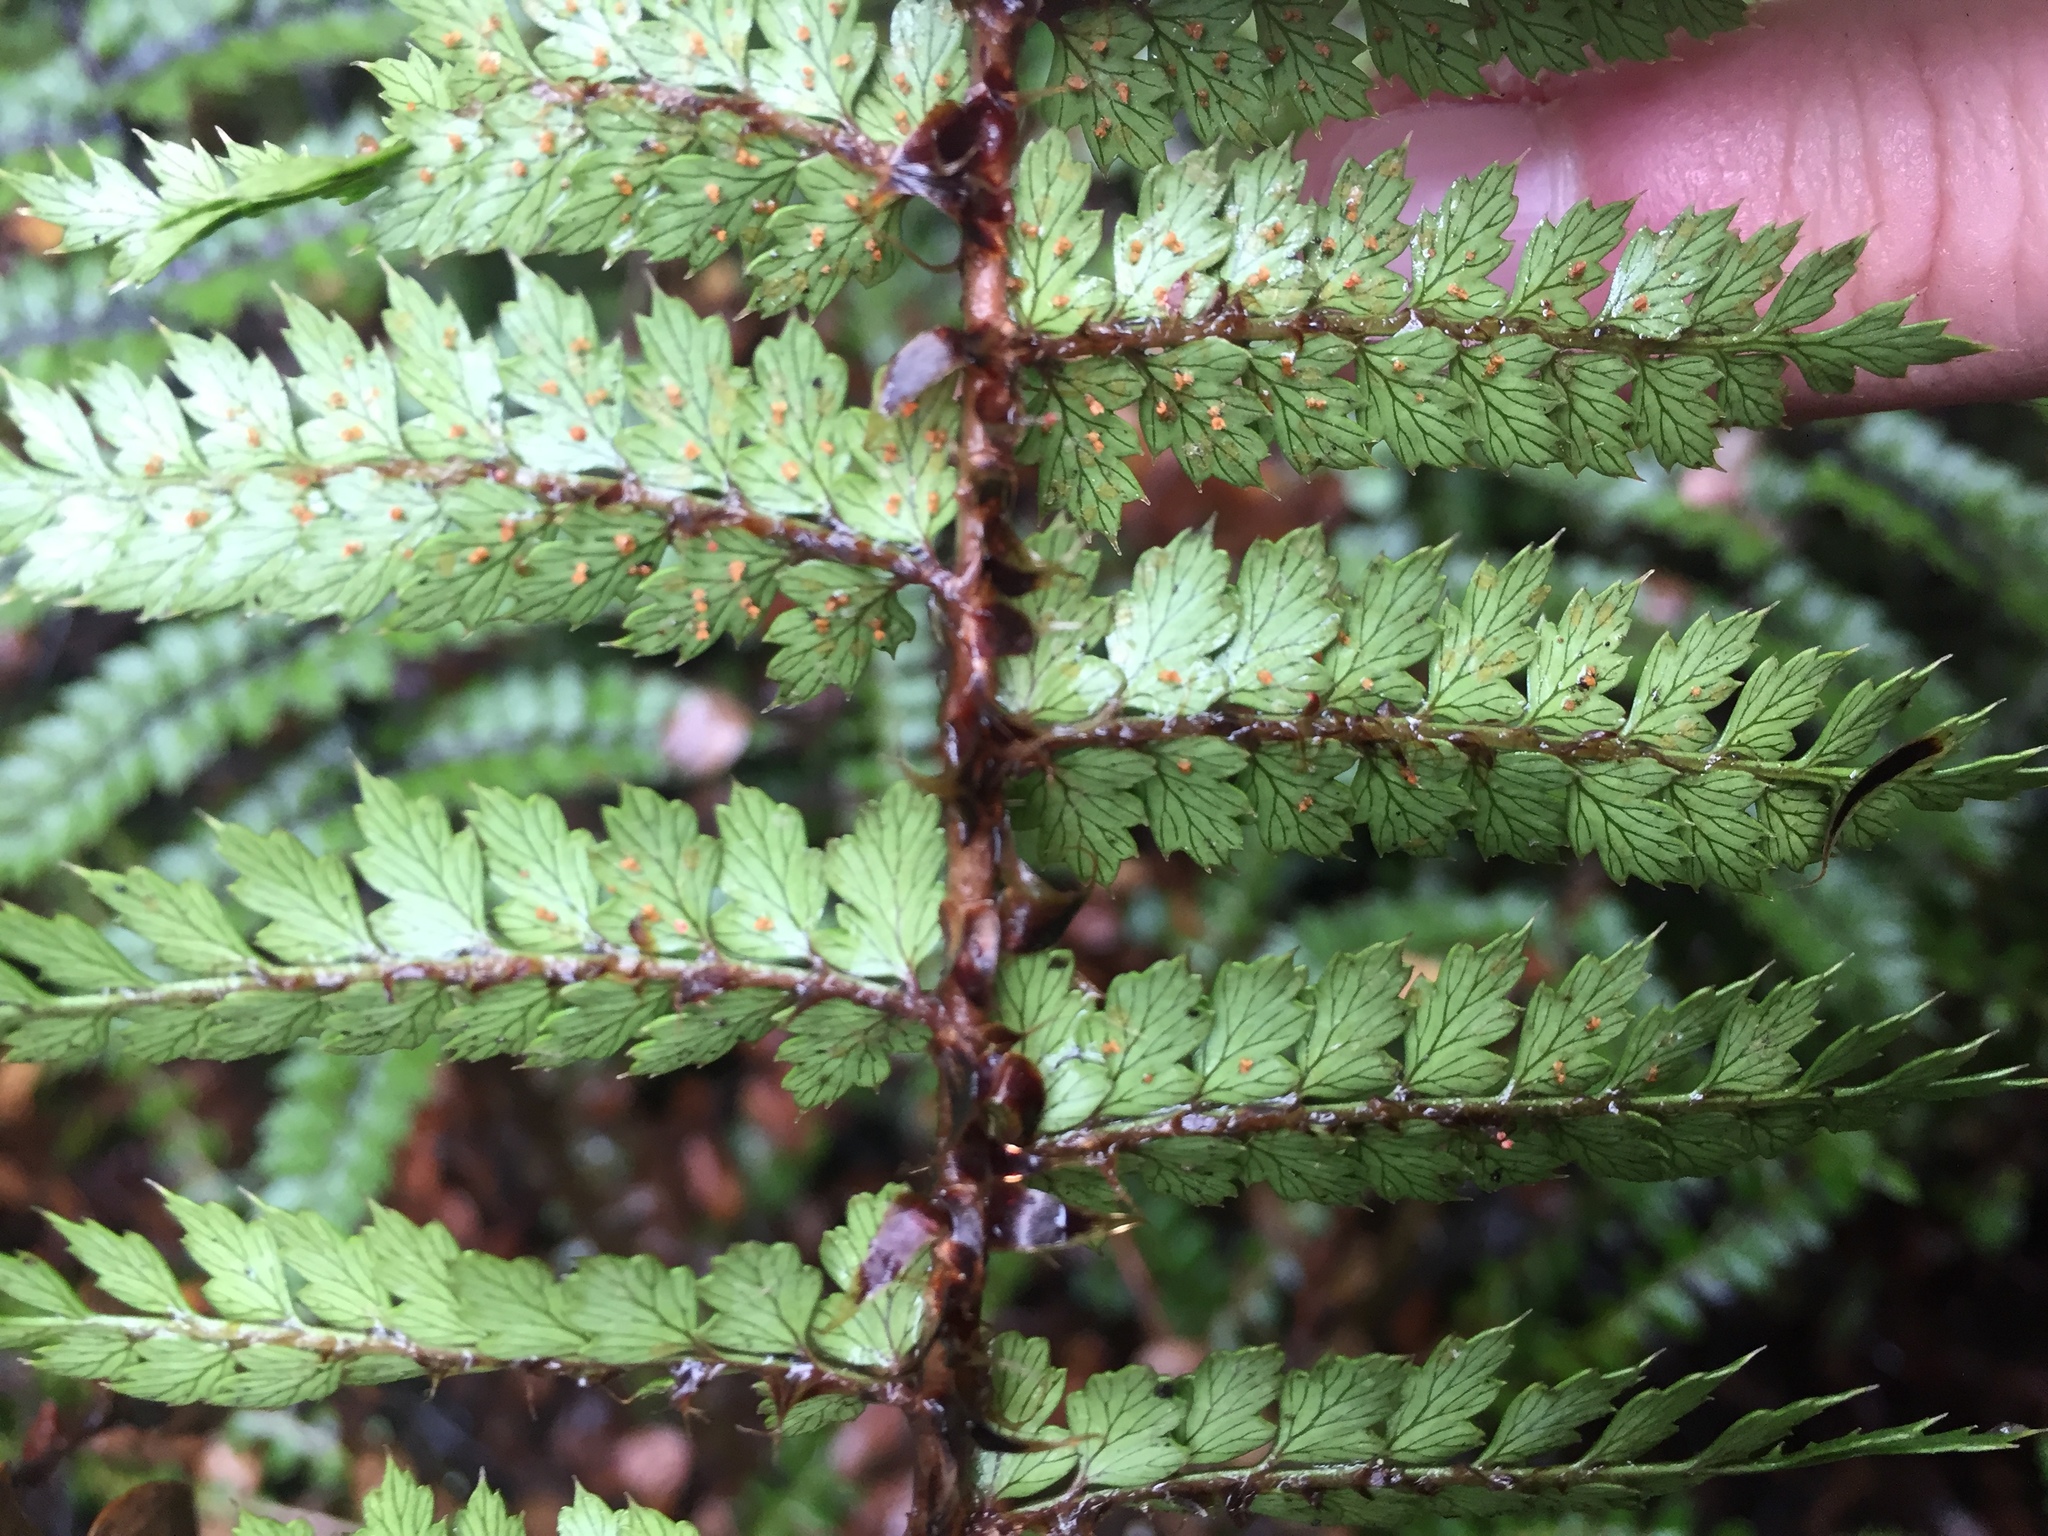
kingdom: Plantae
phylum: Tracheophyta
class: Polypodiopsida
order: Polypodiales
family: Dryopteridaceae
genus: Polystichum
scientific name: Polystichum vestitum
